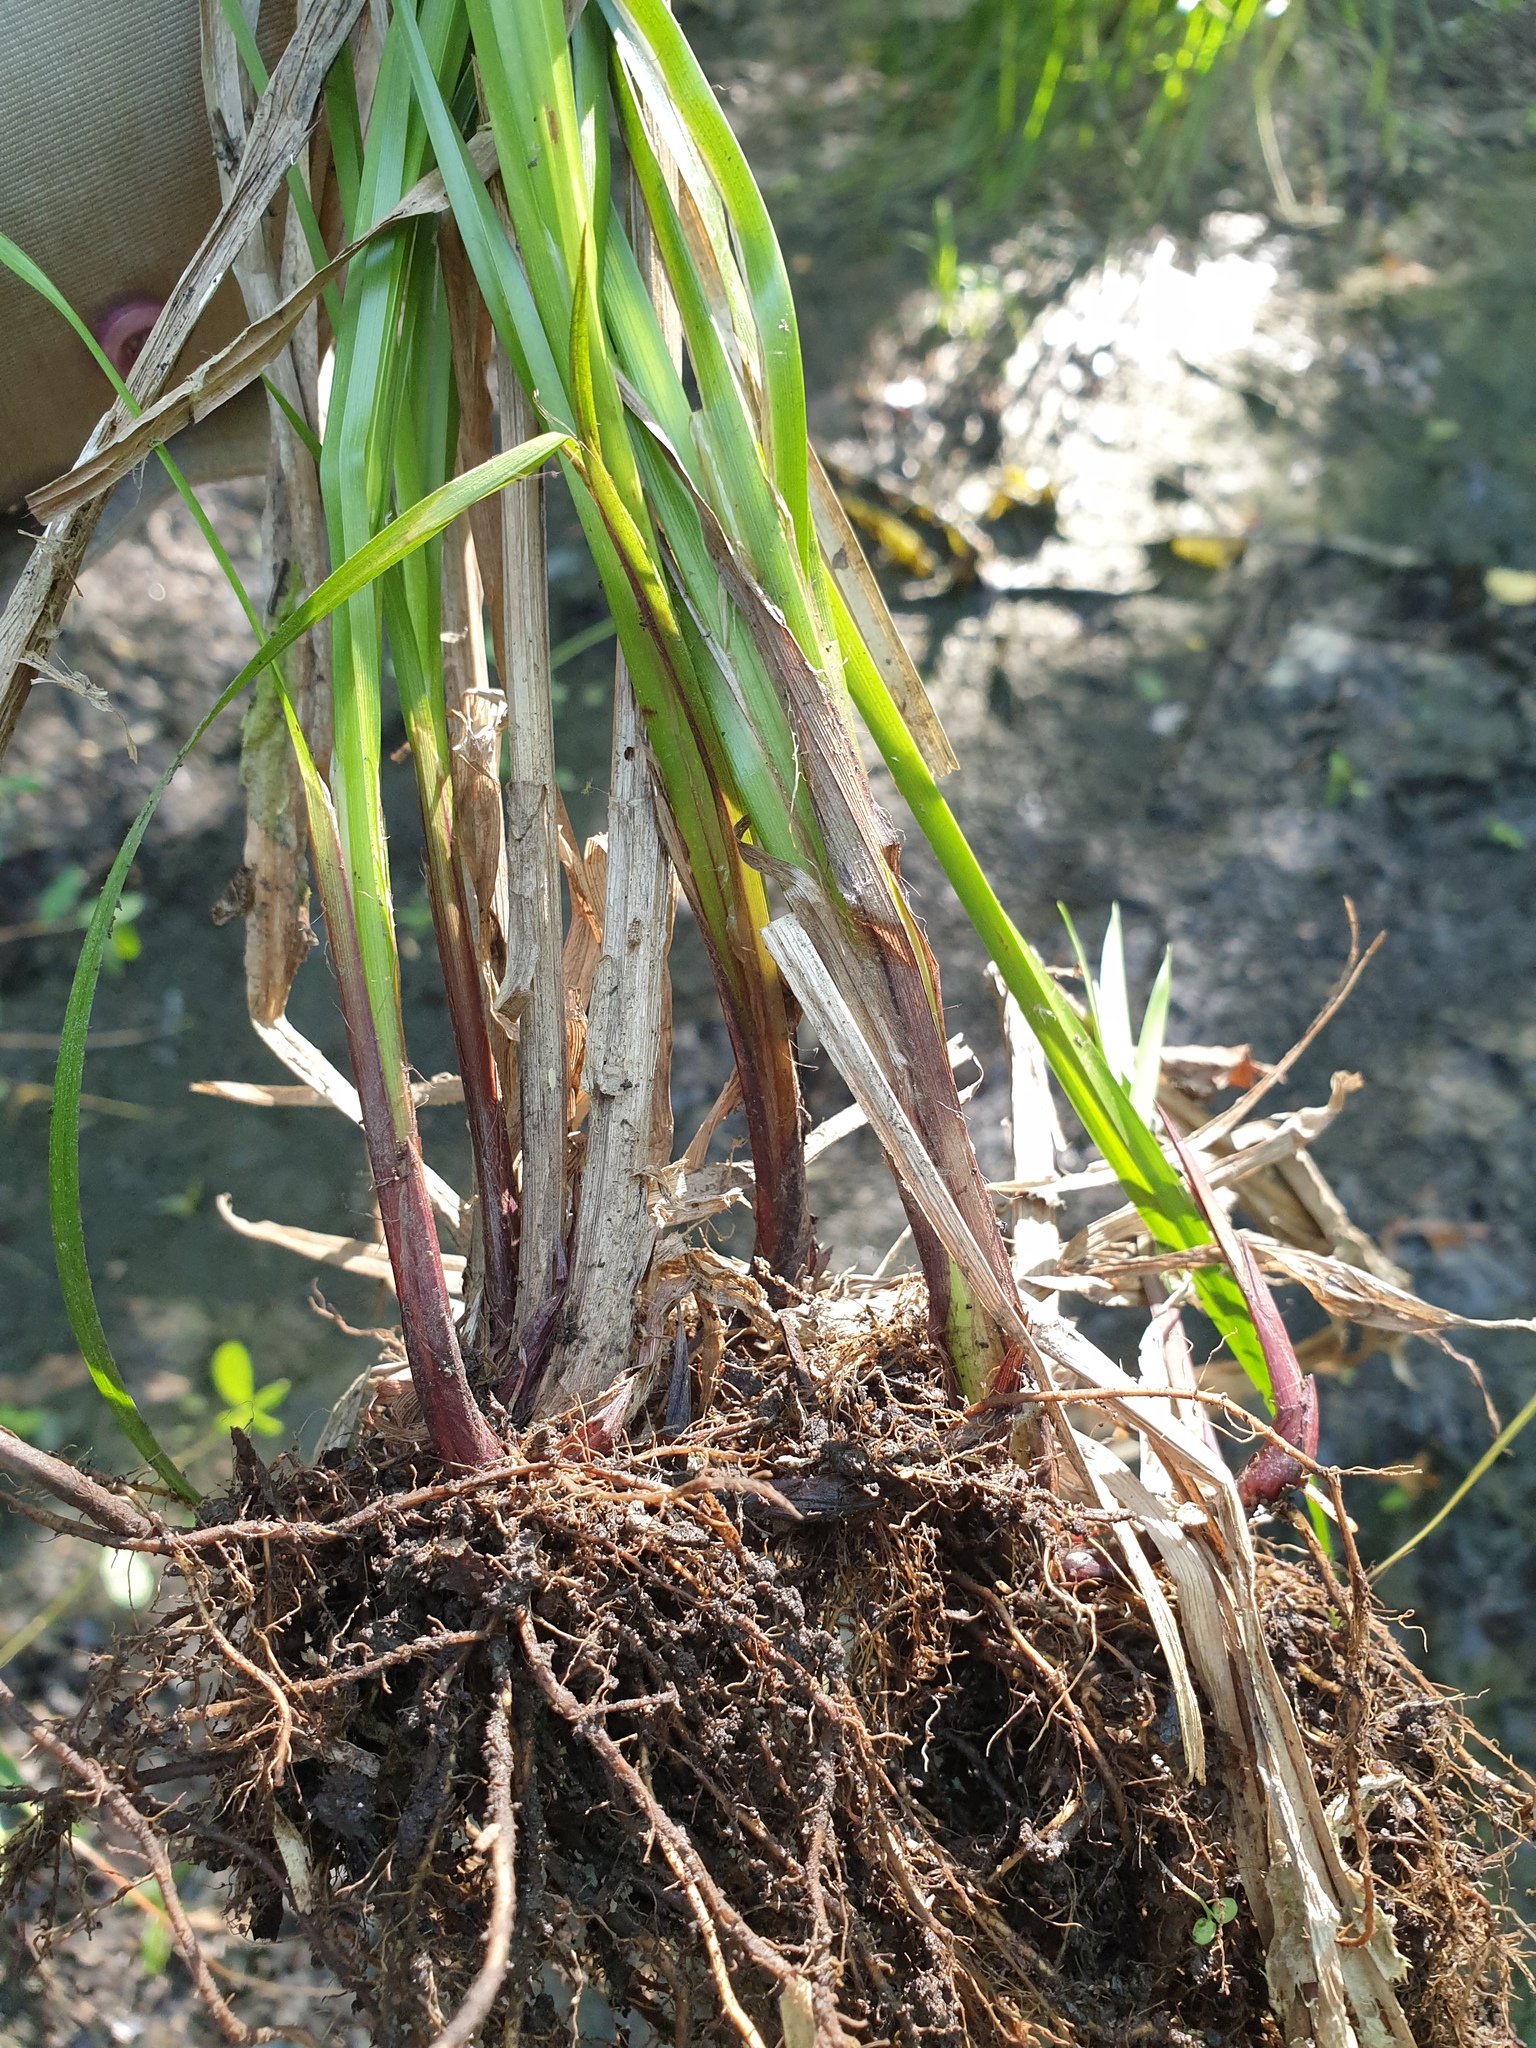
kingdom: Plantae
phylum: Tracheophyta
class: Liliopsida
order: Poales
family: Cyperaceae
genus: Carex
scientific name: Carex lupuliformis
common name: False hop sedge
